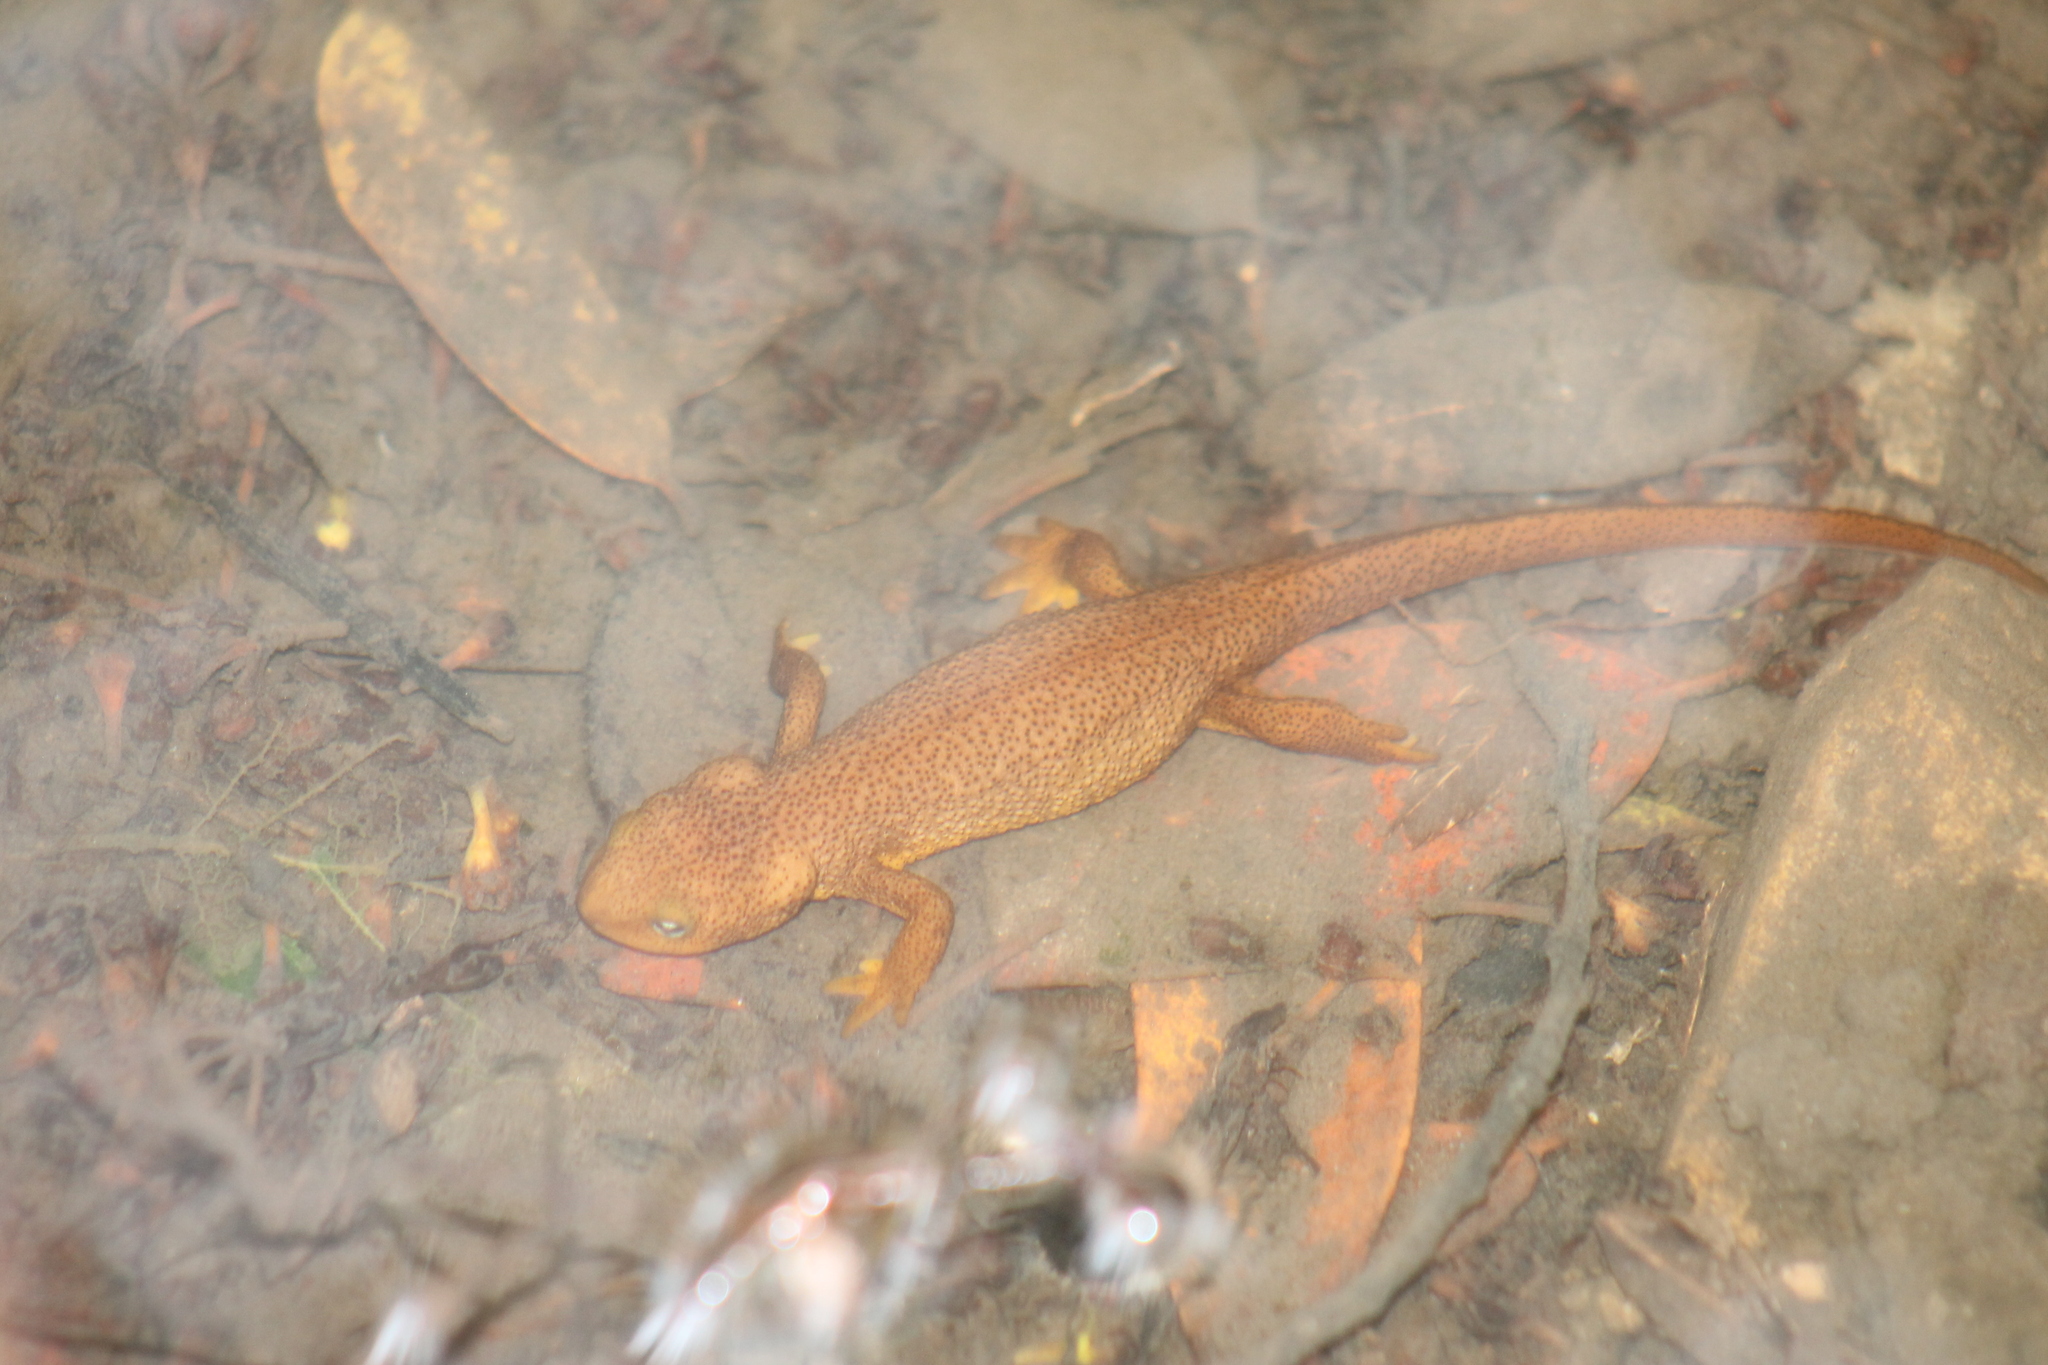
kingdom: Animalia
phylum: Chordata
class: Amphibia
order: Caudata
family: Salamandridae
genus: Taricha
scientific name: Taricha granulosa
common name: Roughskin newt
